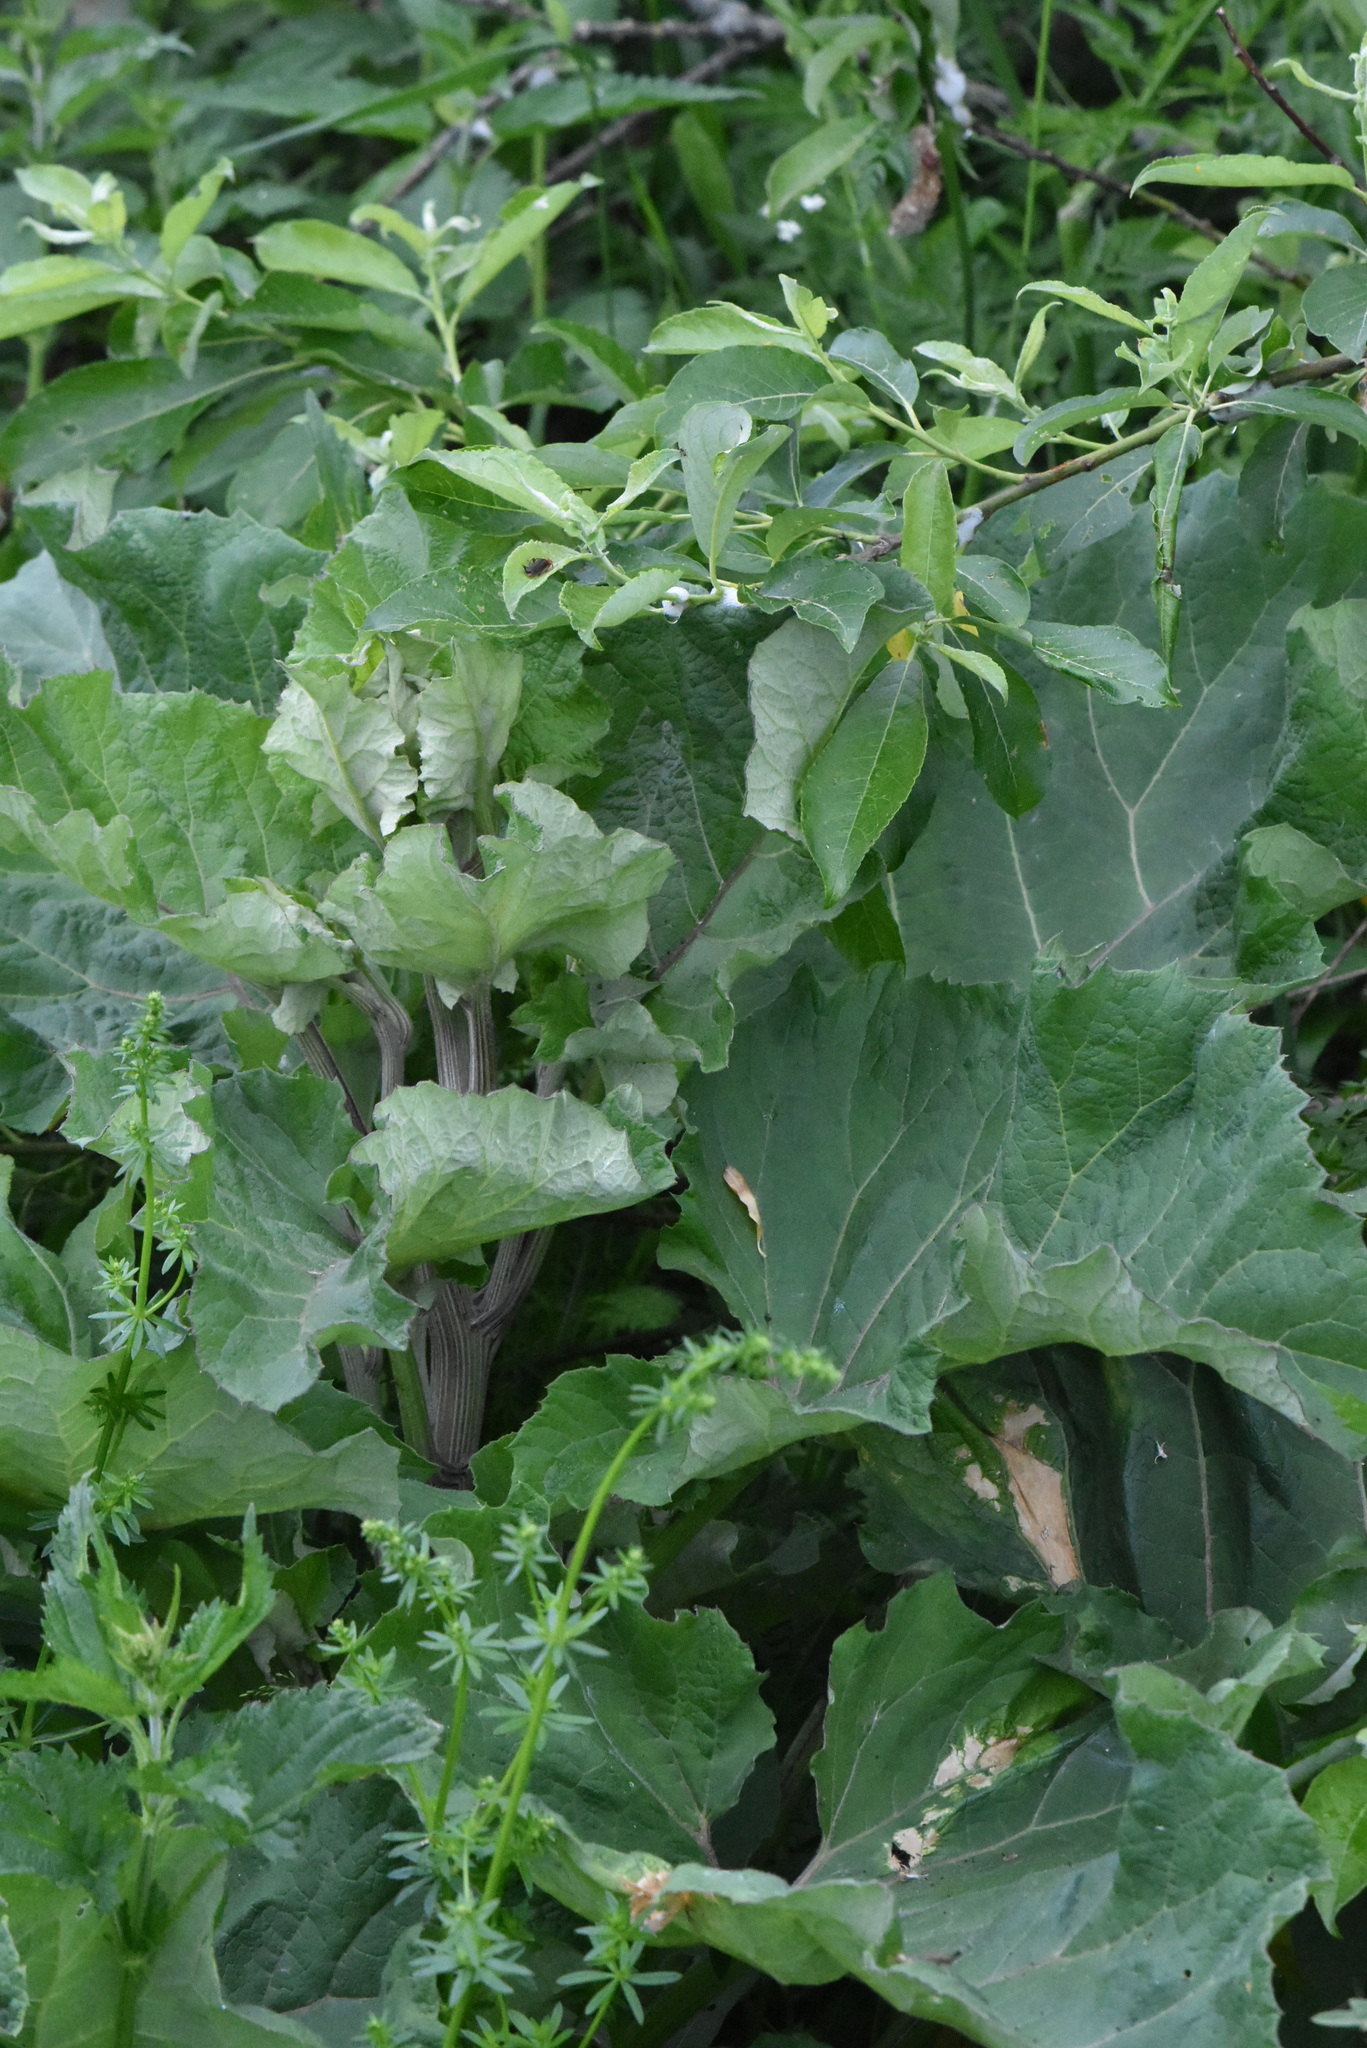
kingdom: Plantae
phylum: Tracheophyta
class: Magnoliopsida
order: Asterales
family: Asteraceae
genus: Arctium
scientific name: Arctium lappa
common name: Greater burdock
